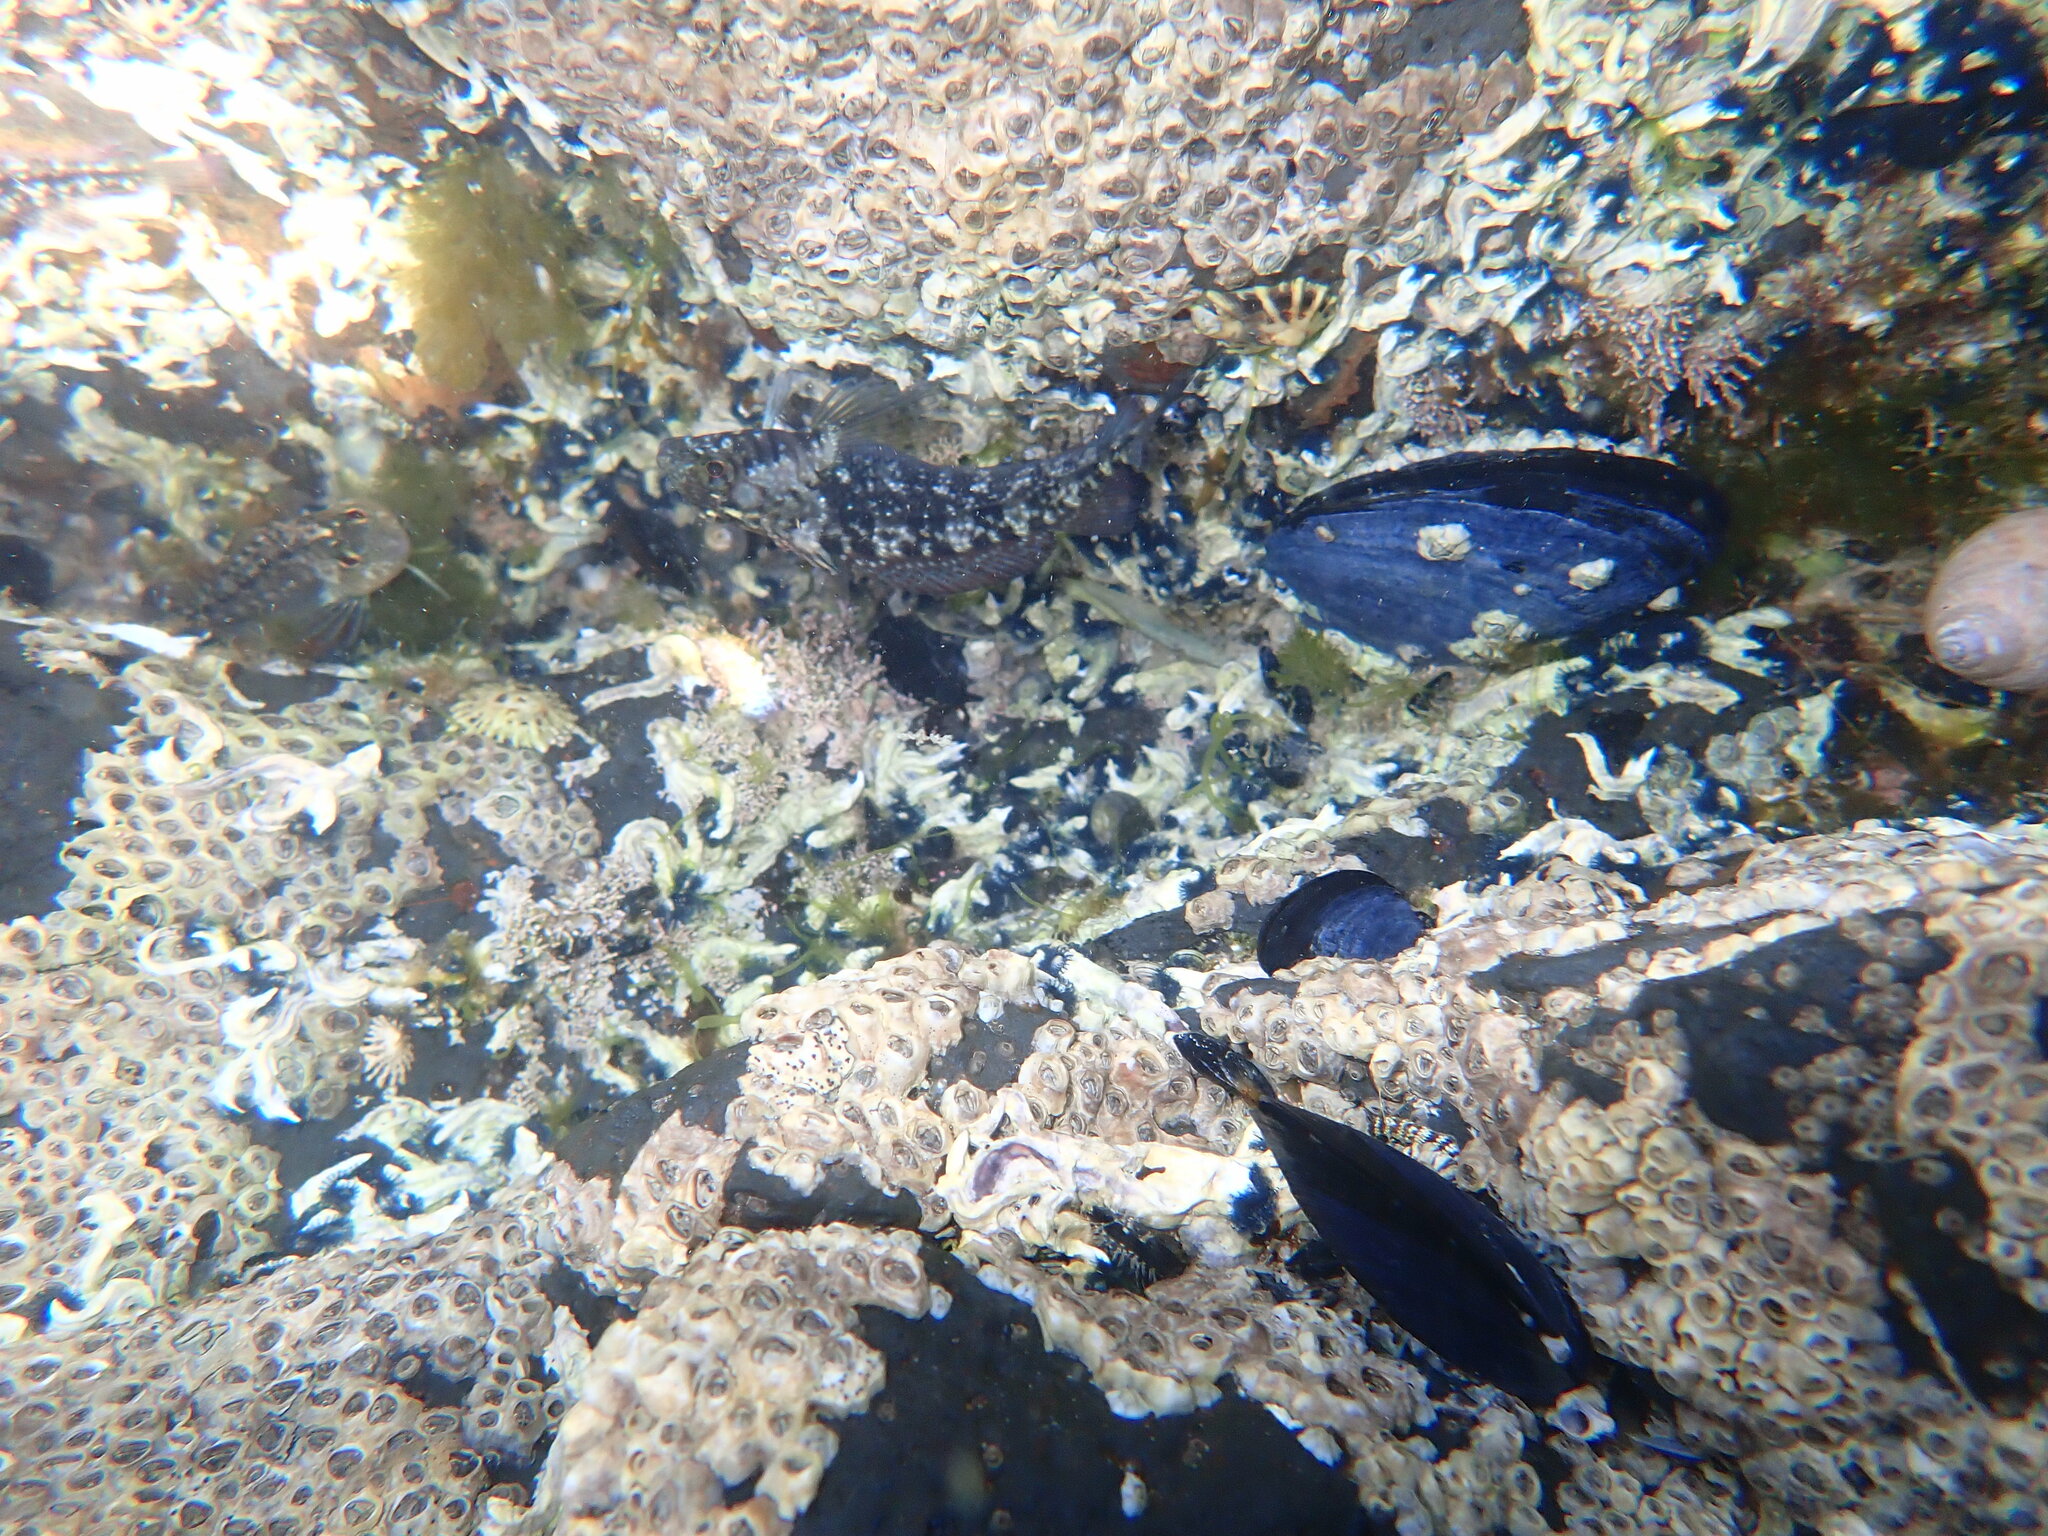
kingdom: Animalia
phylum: Chordata
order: Perciformes
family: Tripterygiidae
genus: Forsterygion
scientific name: Forsterygion lapillum
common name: Common triplefin
